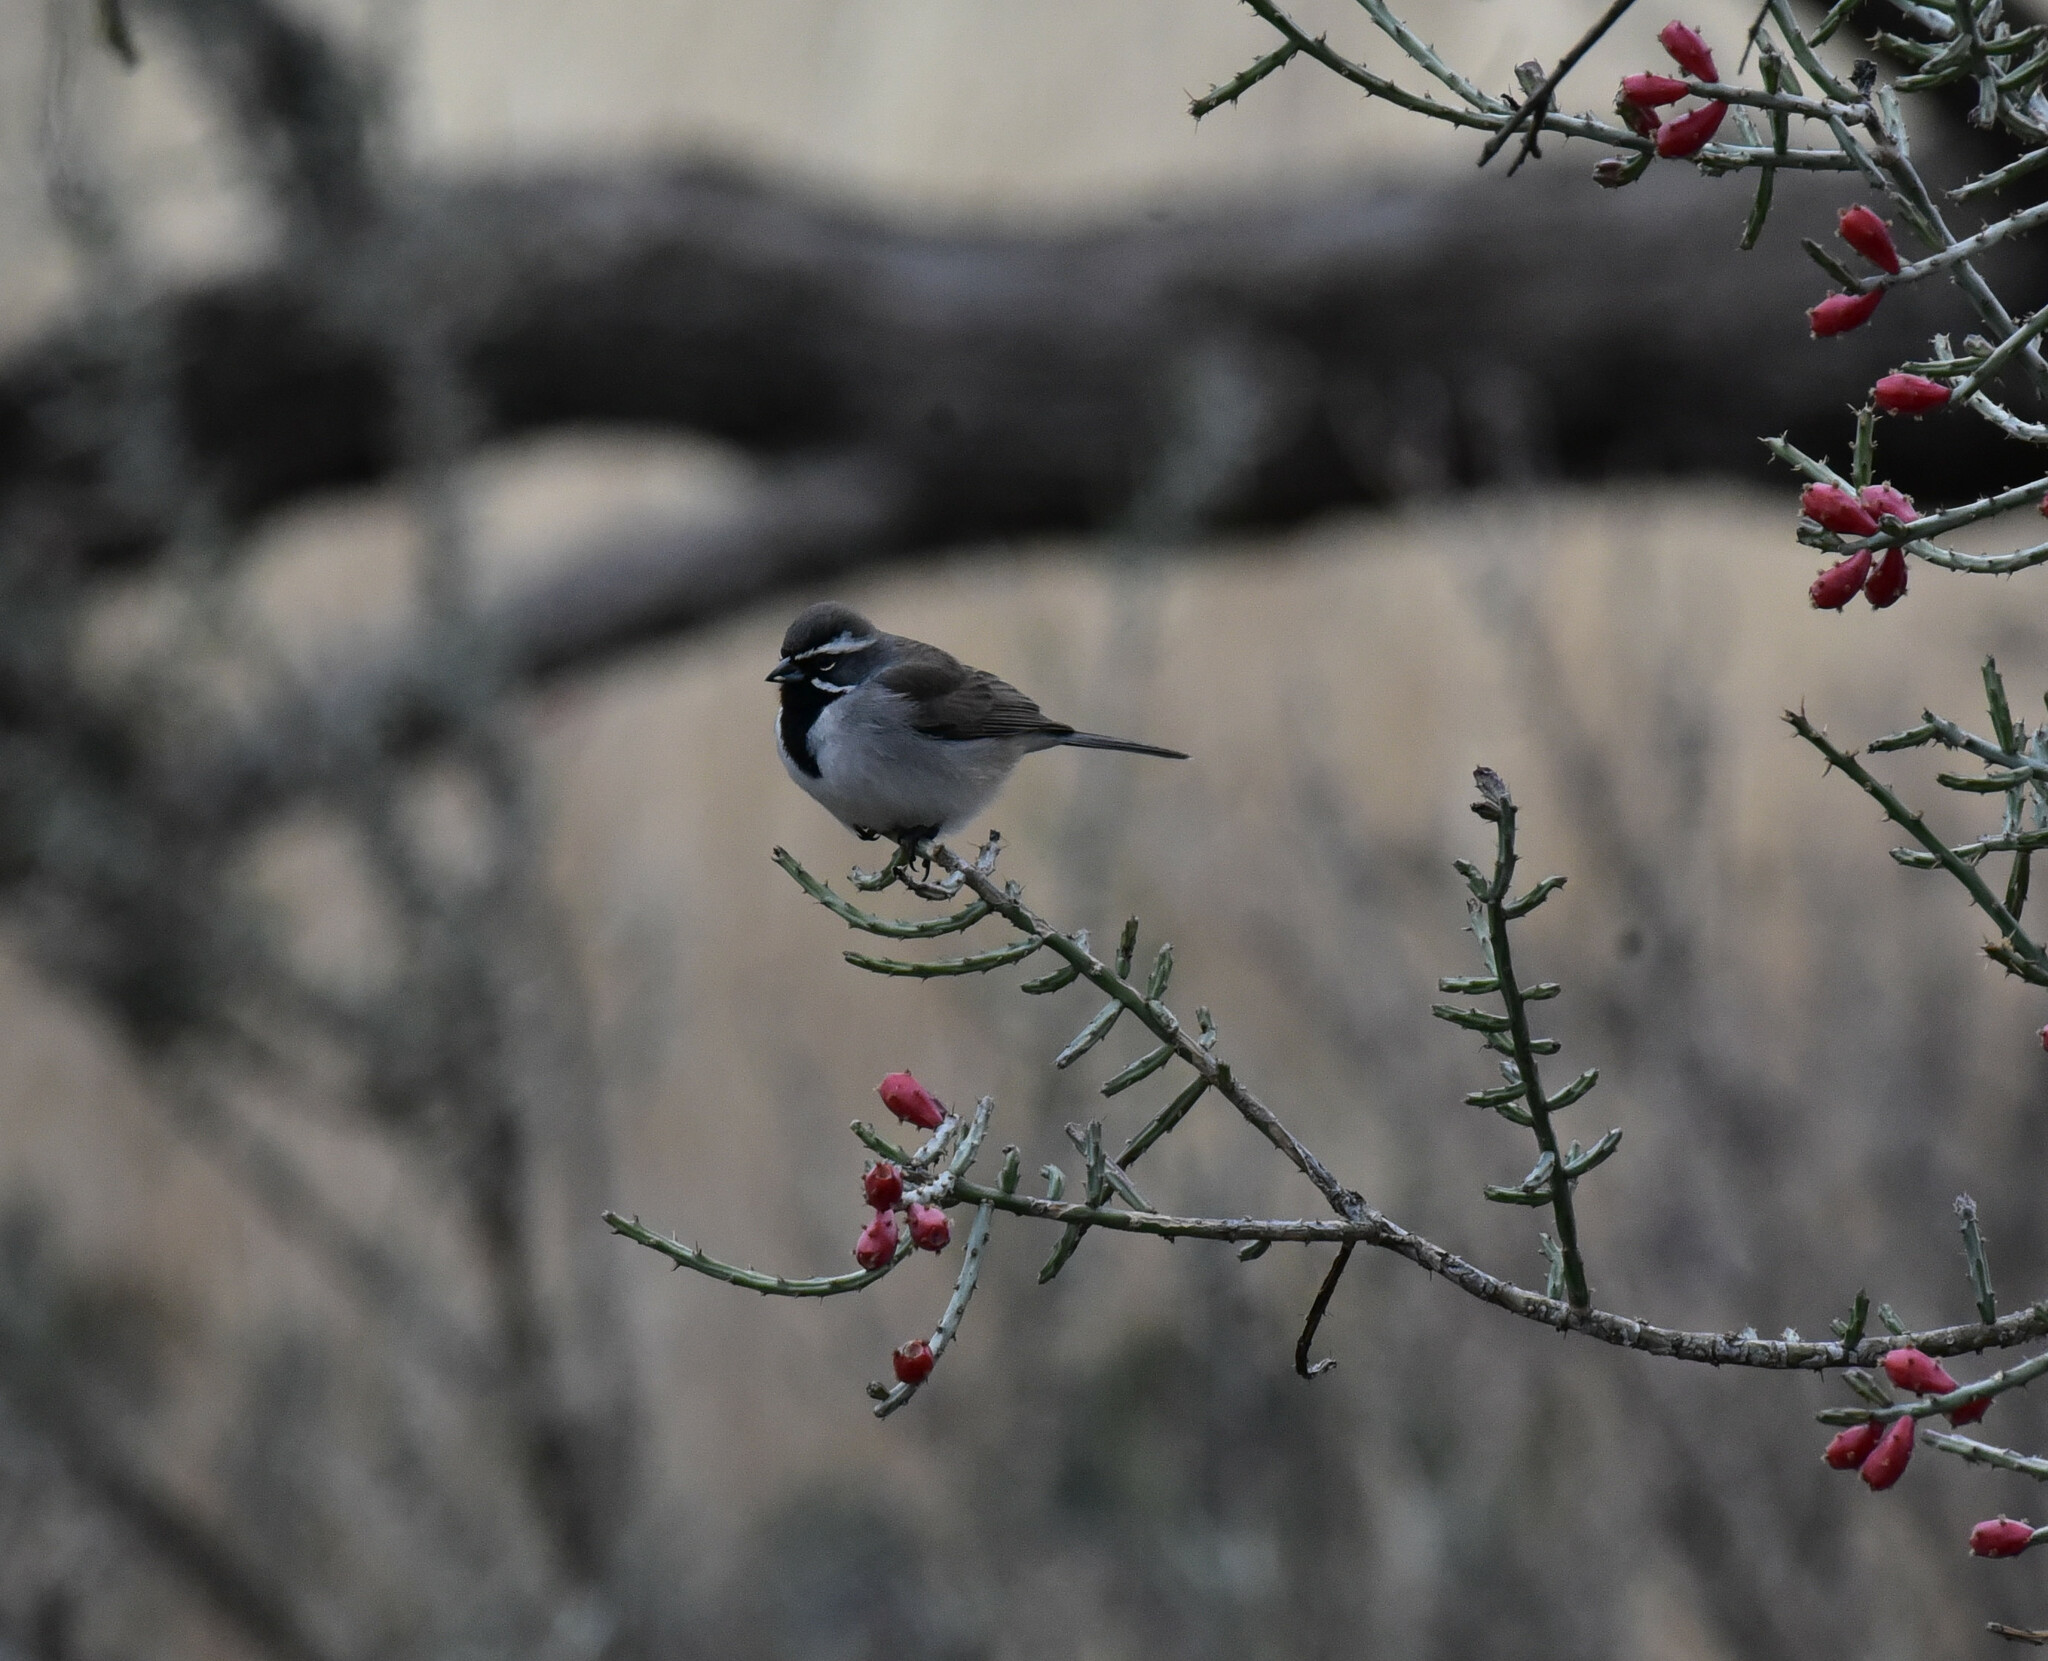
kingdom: Animalia
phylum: Chordata
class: Aves
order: Passeriformes
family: Passerellidae
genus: Amphispiza
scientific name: Amphispiza bilineata
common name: Black-throated sparrow
